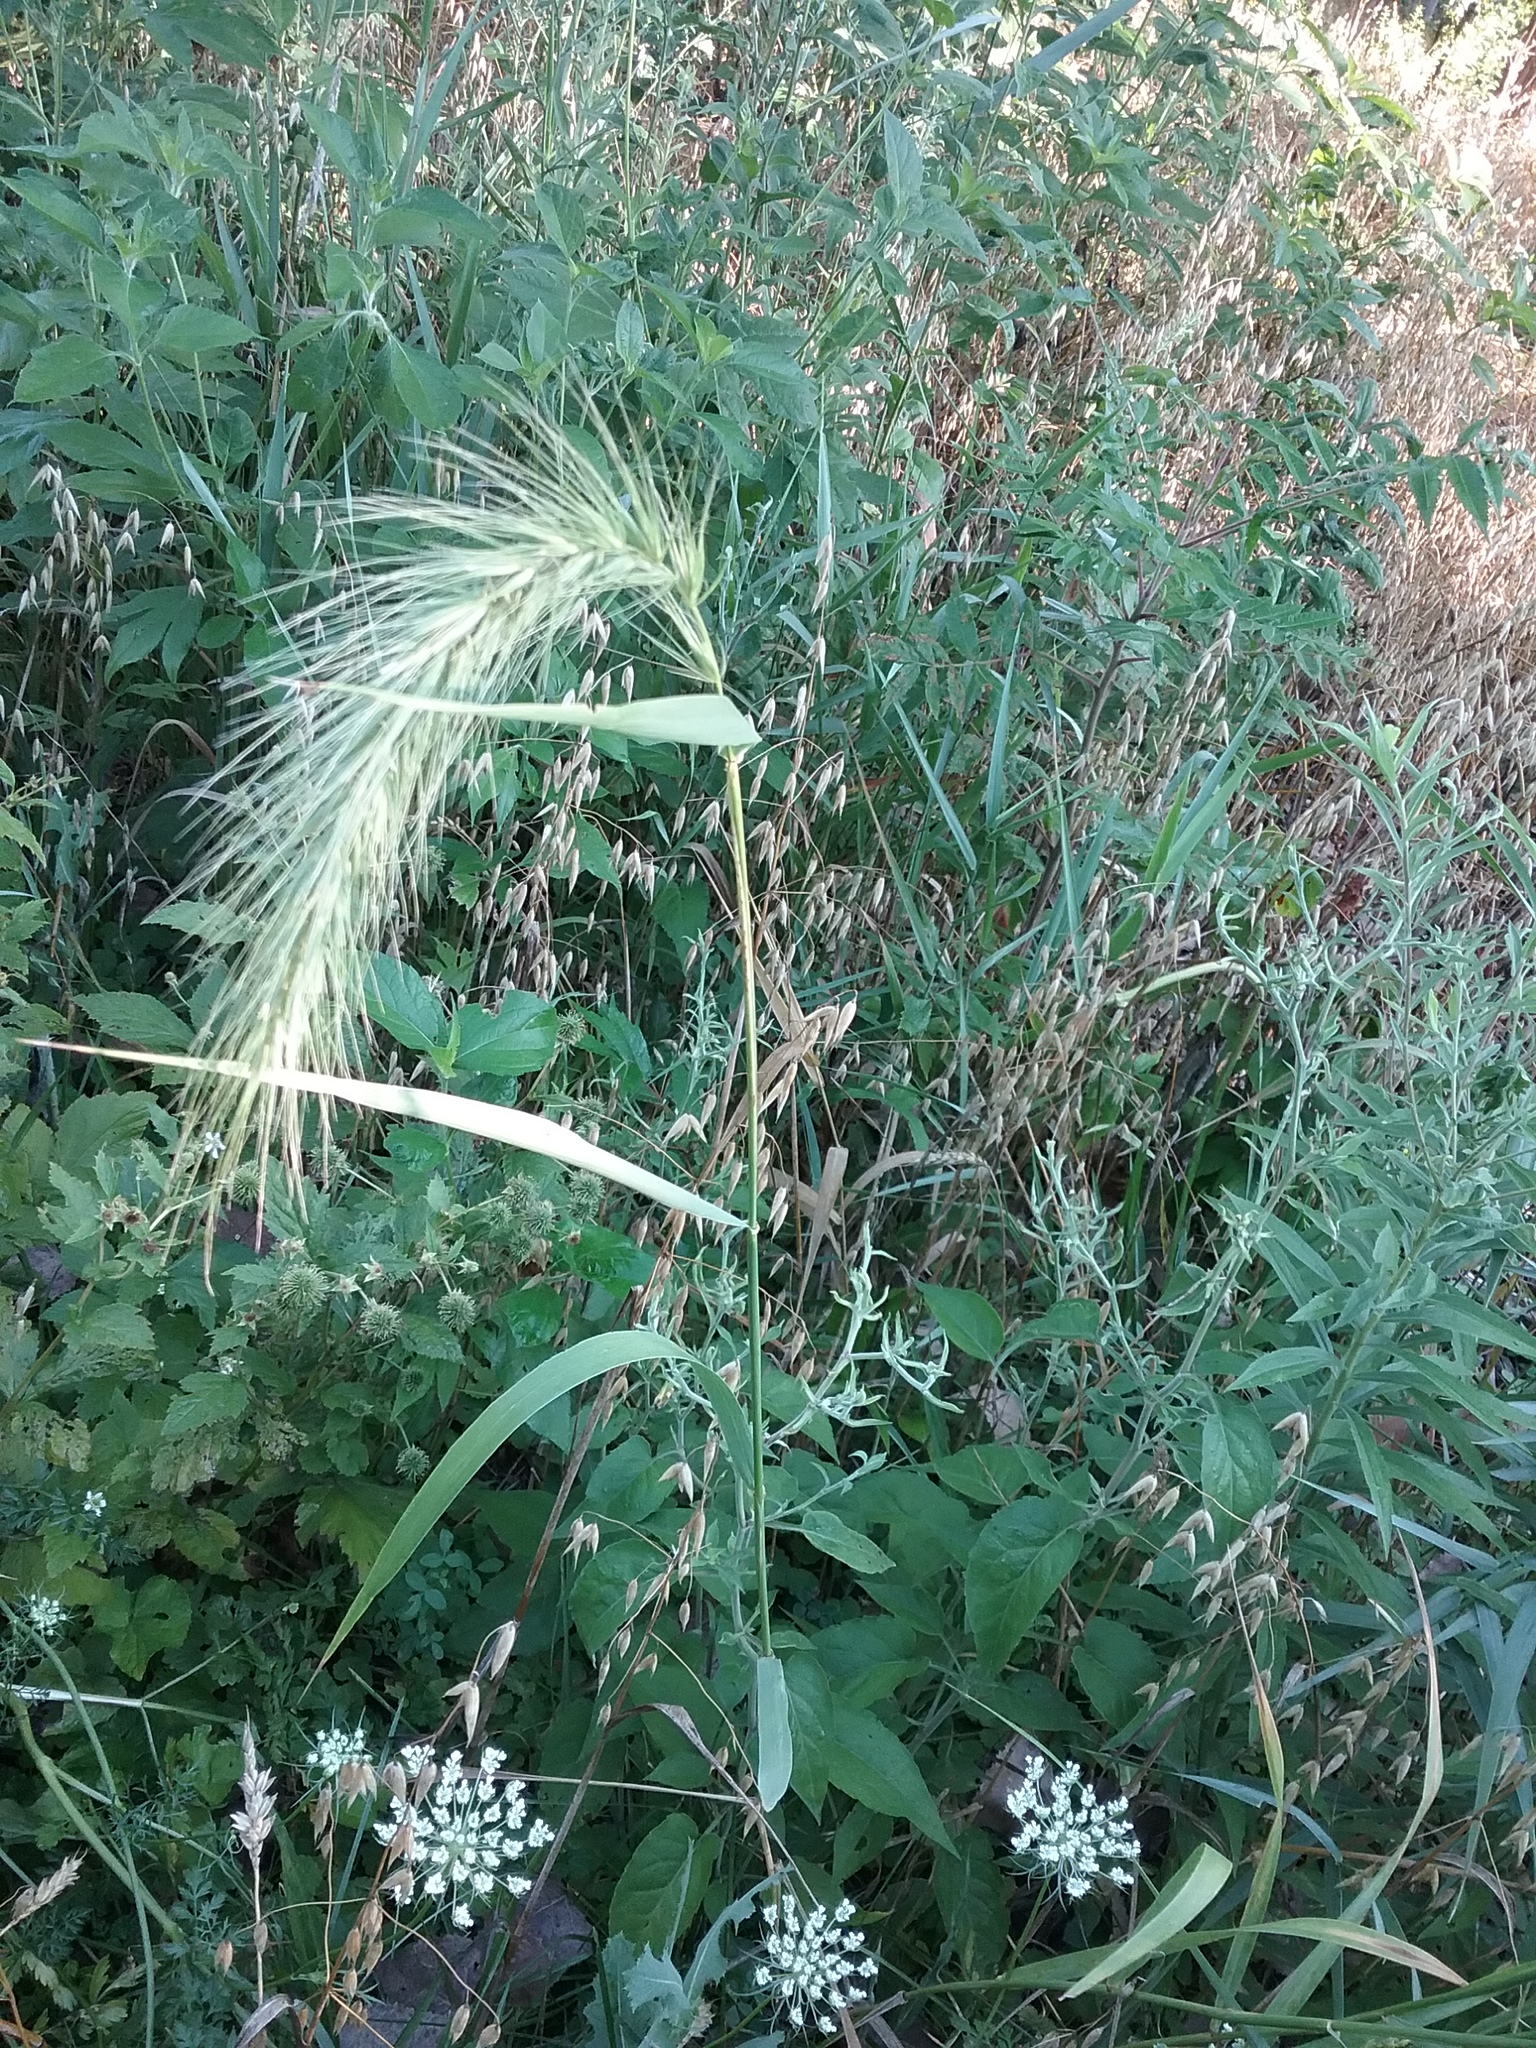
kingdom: Plantae
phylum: Tracheophyta
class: Liliopsida
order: Poales
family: Poaceae
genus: Elymus
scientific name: Elymus canadensis
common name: Canada wild rye
